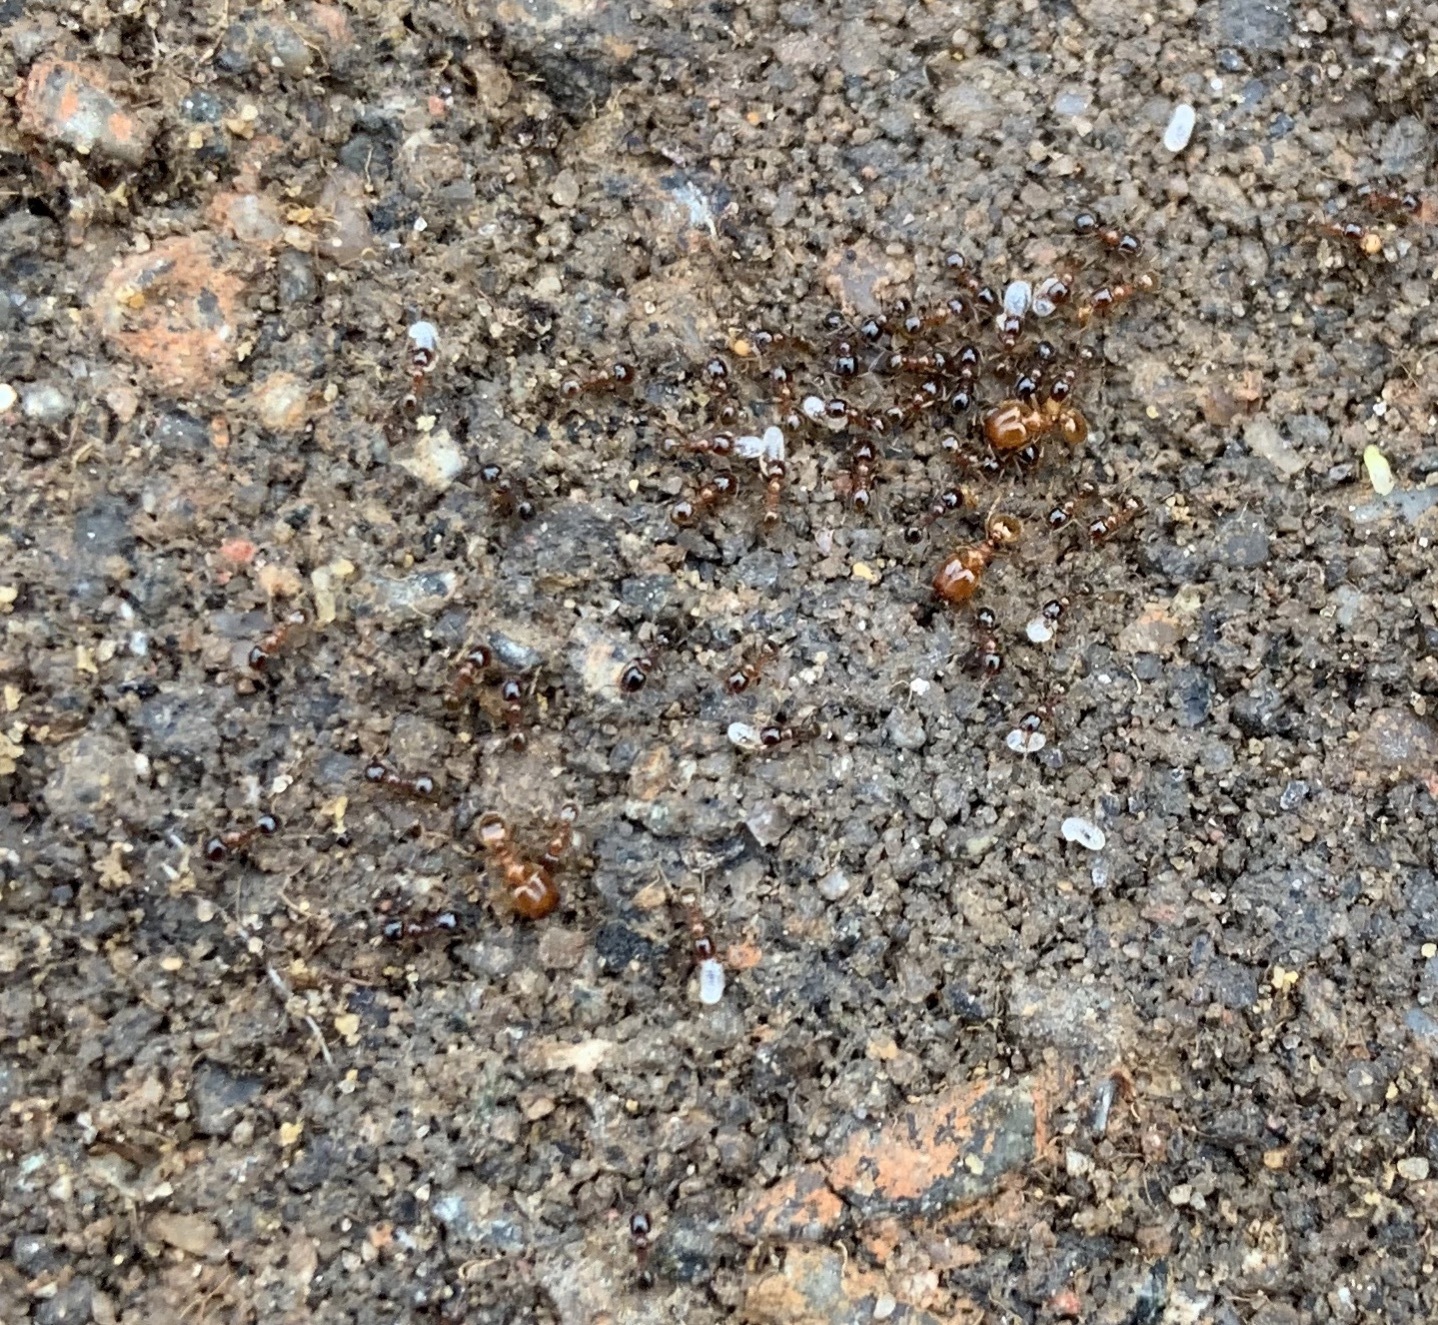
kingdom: Animalia
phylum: Arthropoda
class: Insecta
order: Hymenoptera
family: Formicidae
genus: Pheidole
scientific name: Pheidole bicarinata
